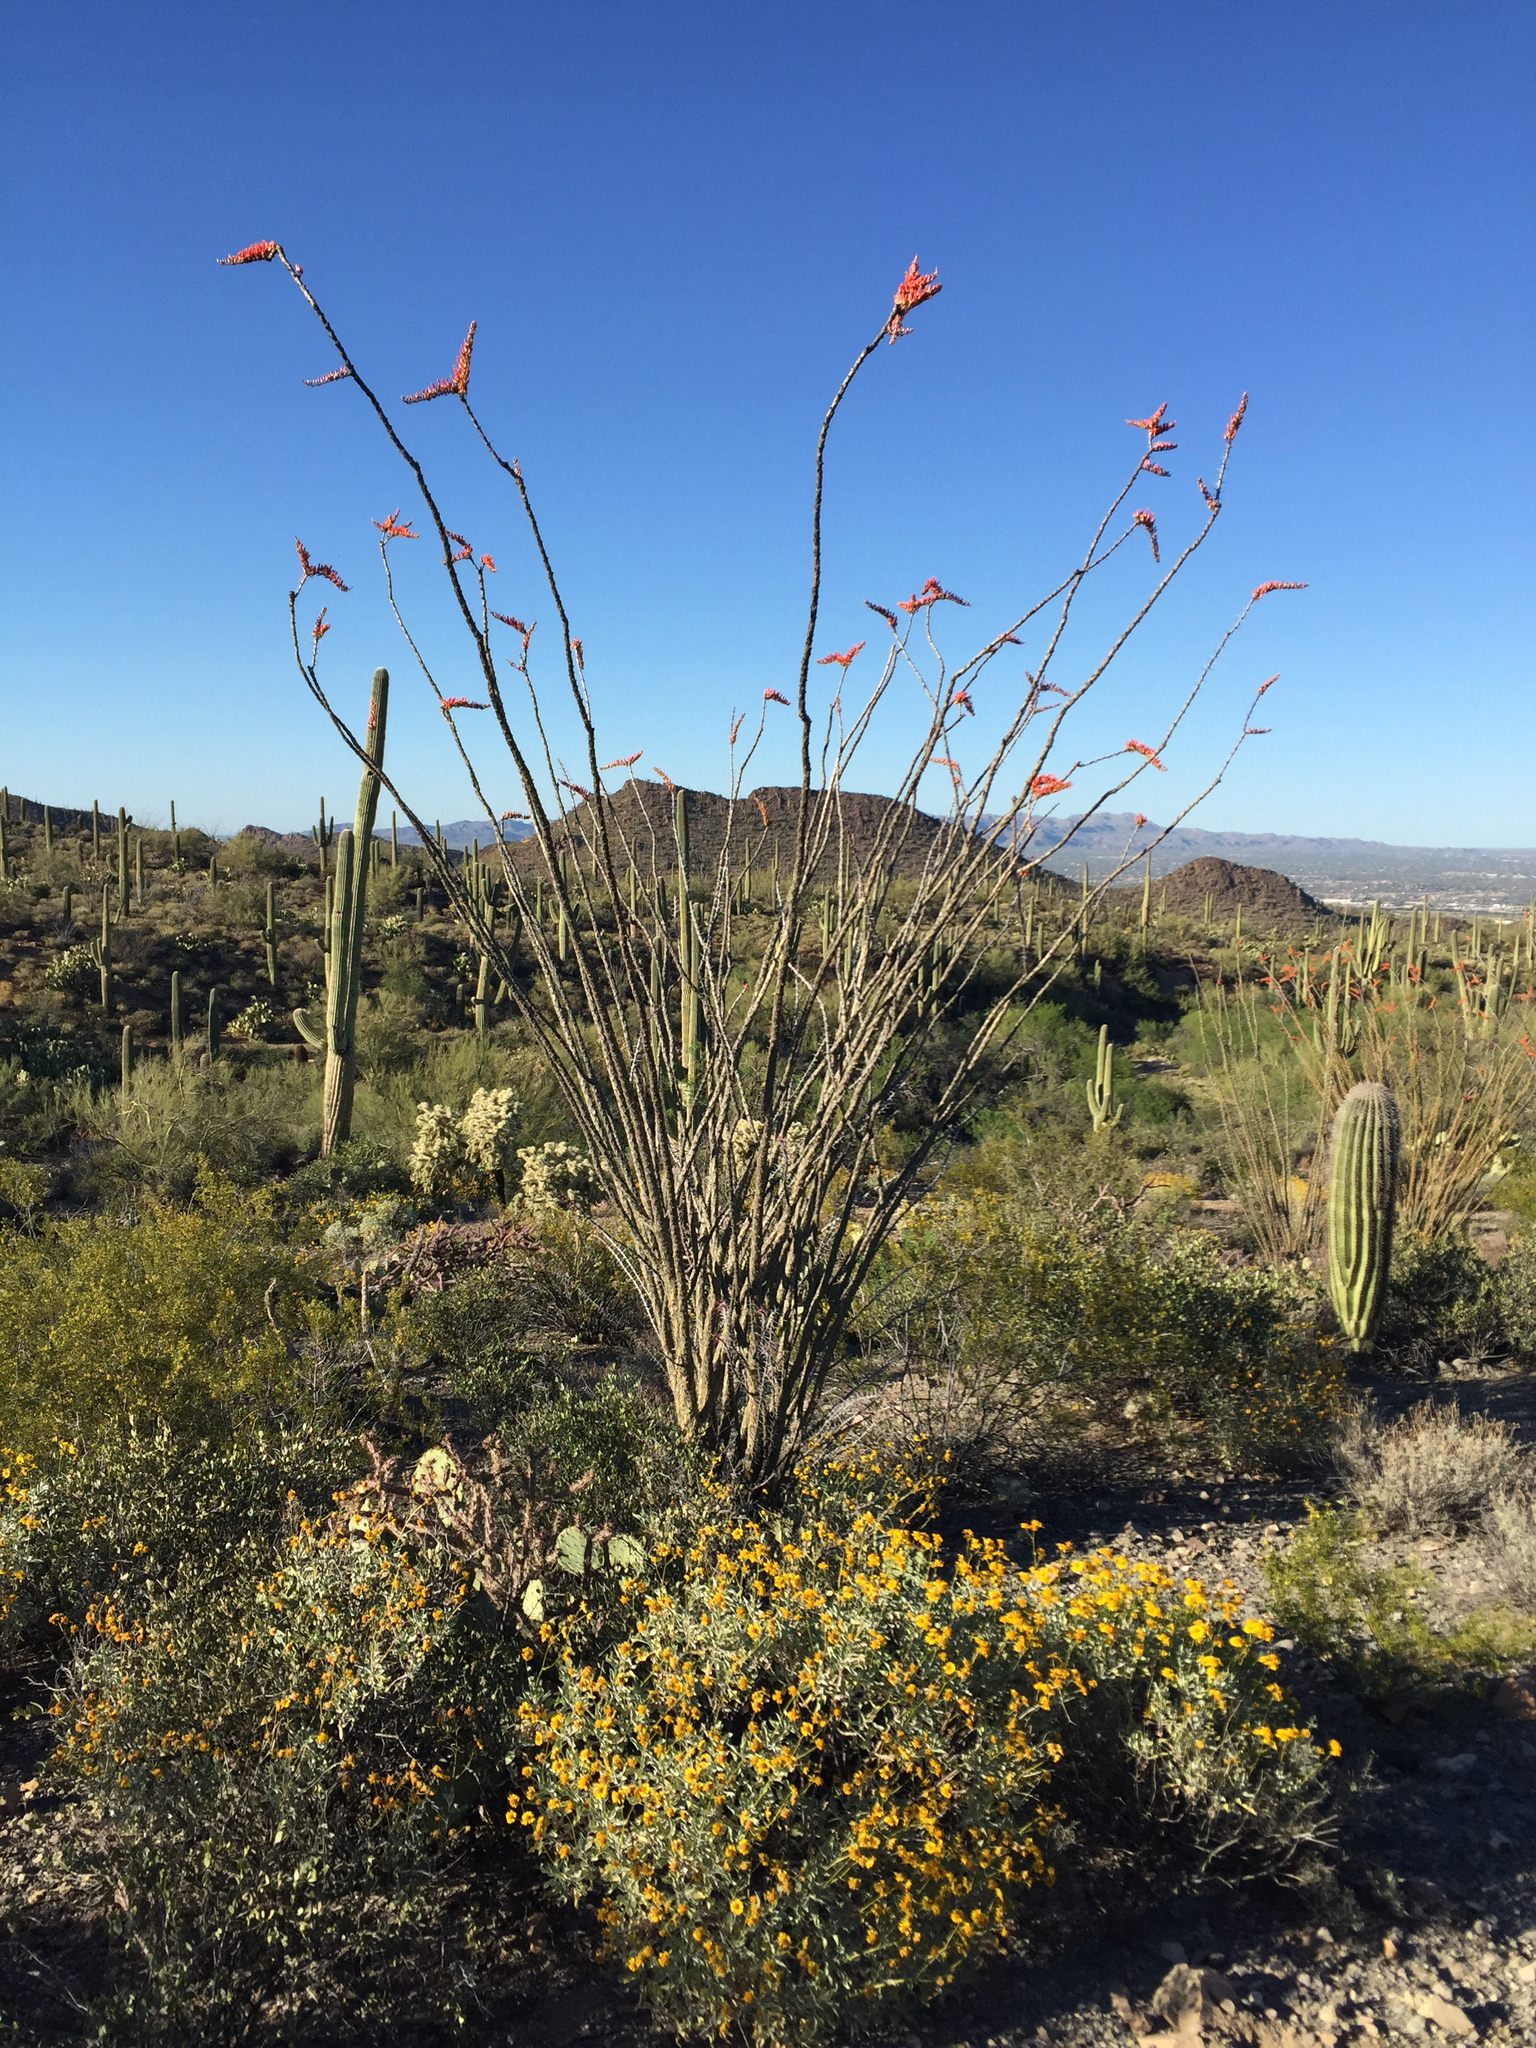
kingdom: Plantae
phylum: Tracheophyta
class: Magnoliopsida
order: Asterales
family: Asteraceae
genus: Encelia
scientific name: Encelia farinosa
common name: Brittlebush
